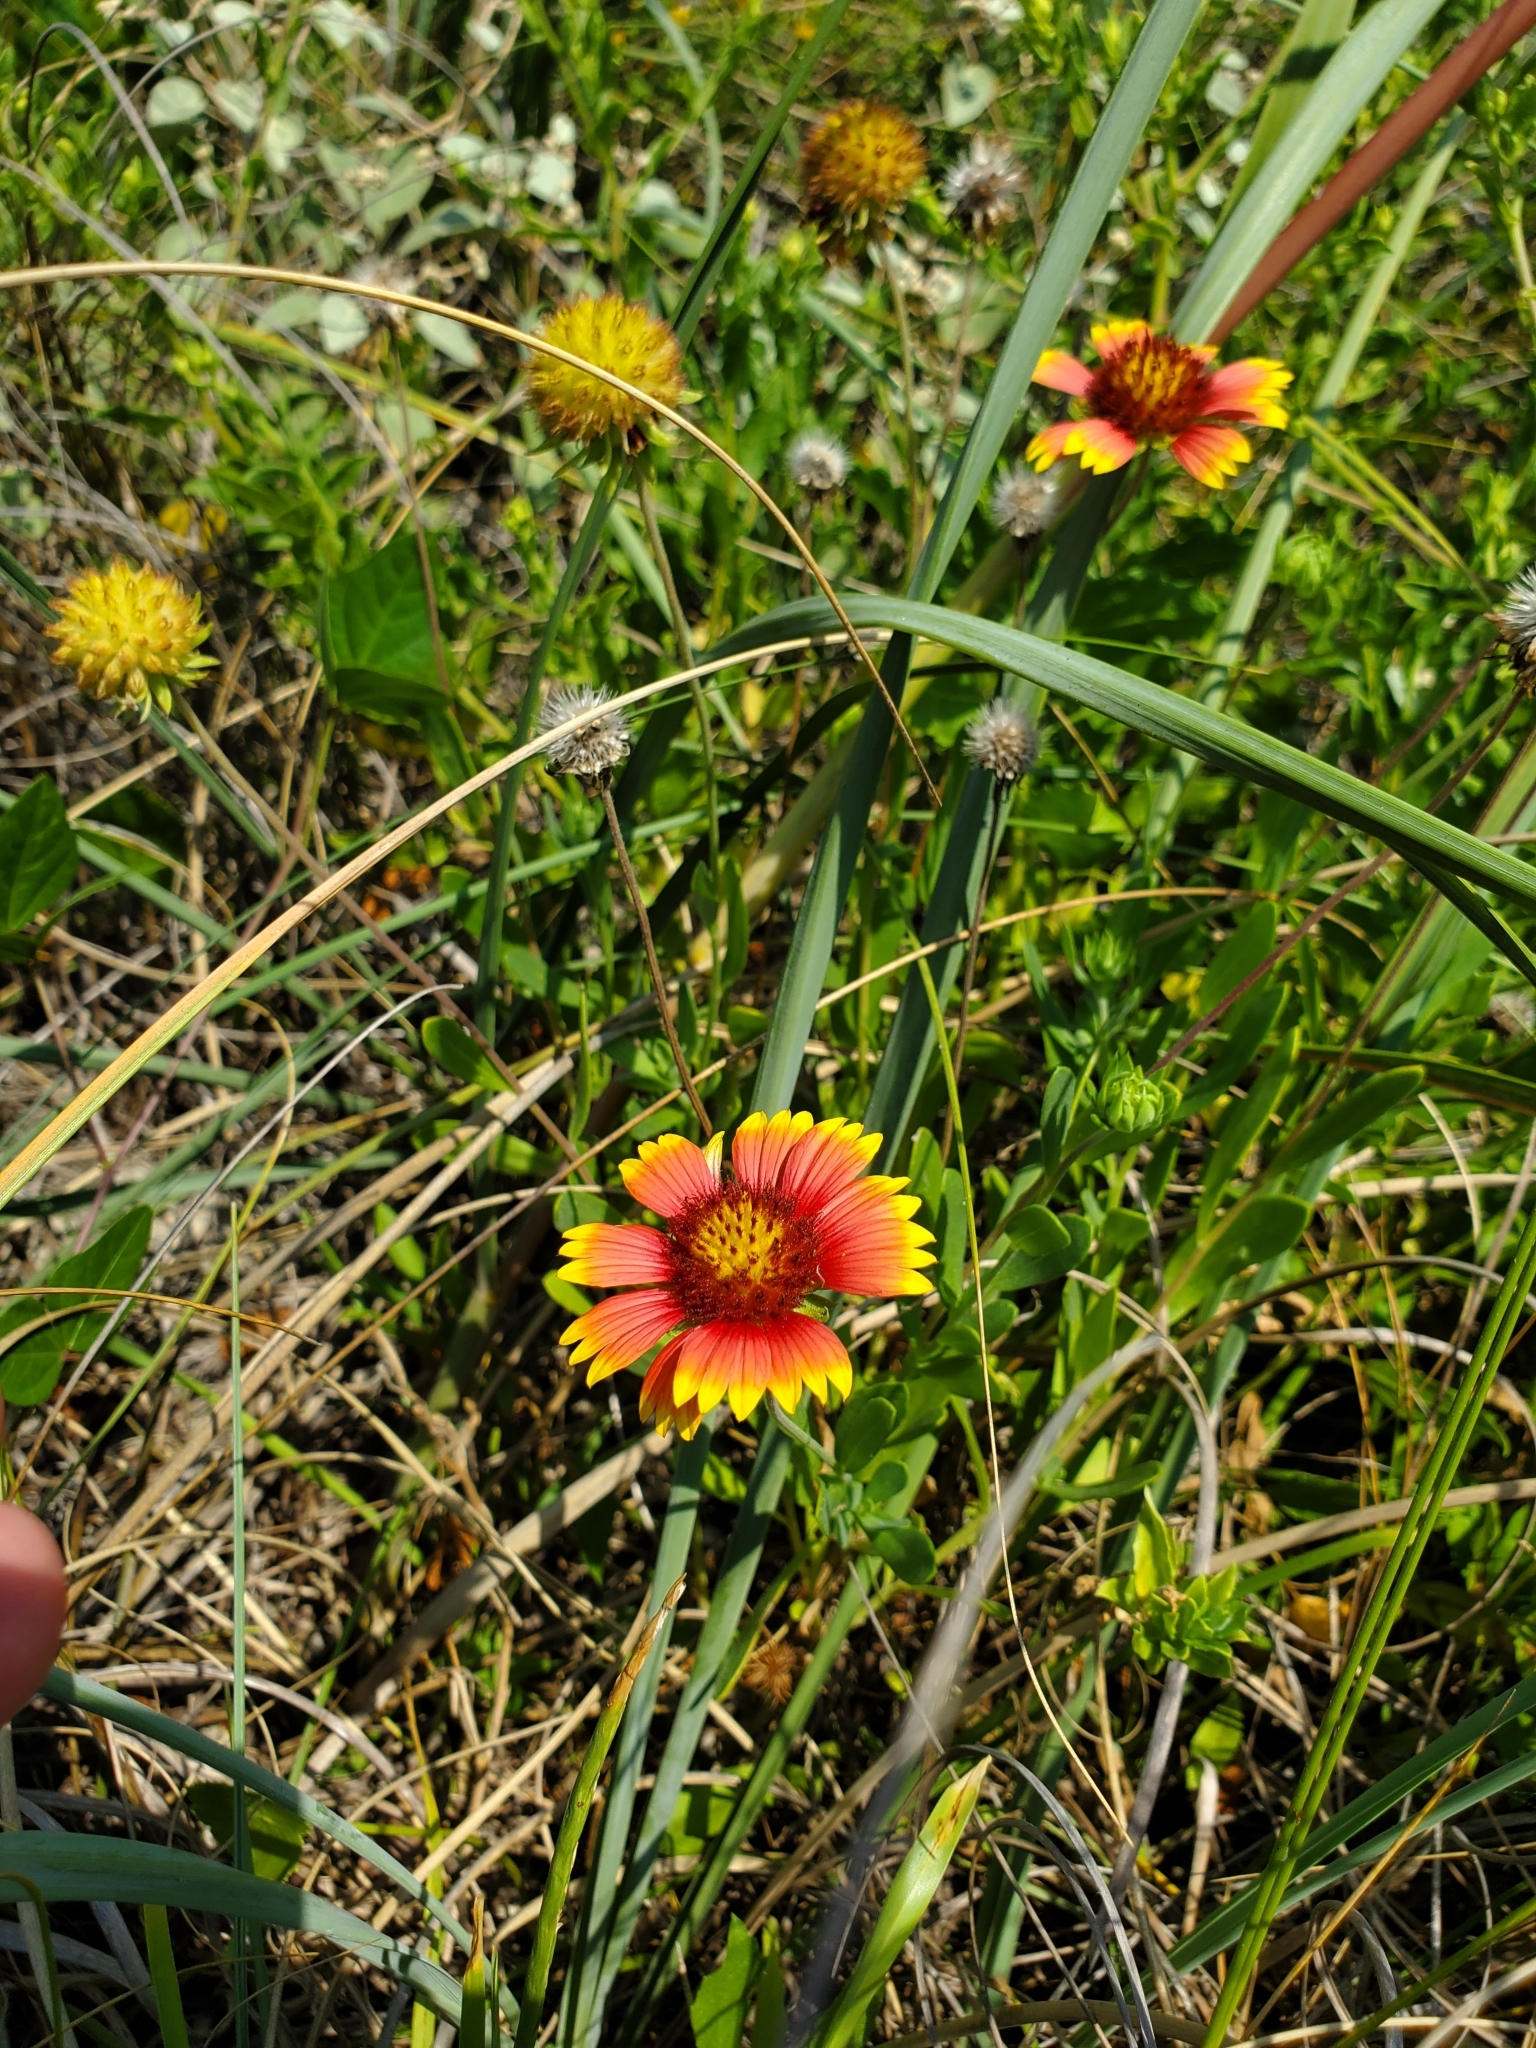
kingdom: Plantae
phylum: Tracheophyta
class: Magnoliopsida
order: Asterales
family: Asteraceae
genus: Gaillardia
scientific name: Gaillardia pulchella
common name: Firewheel
